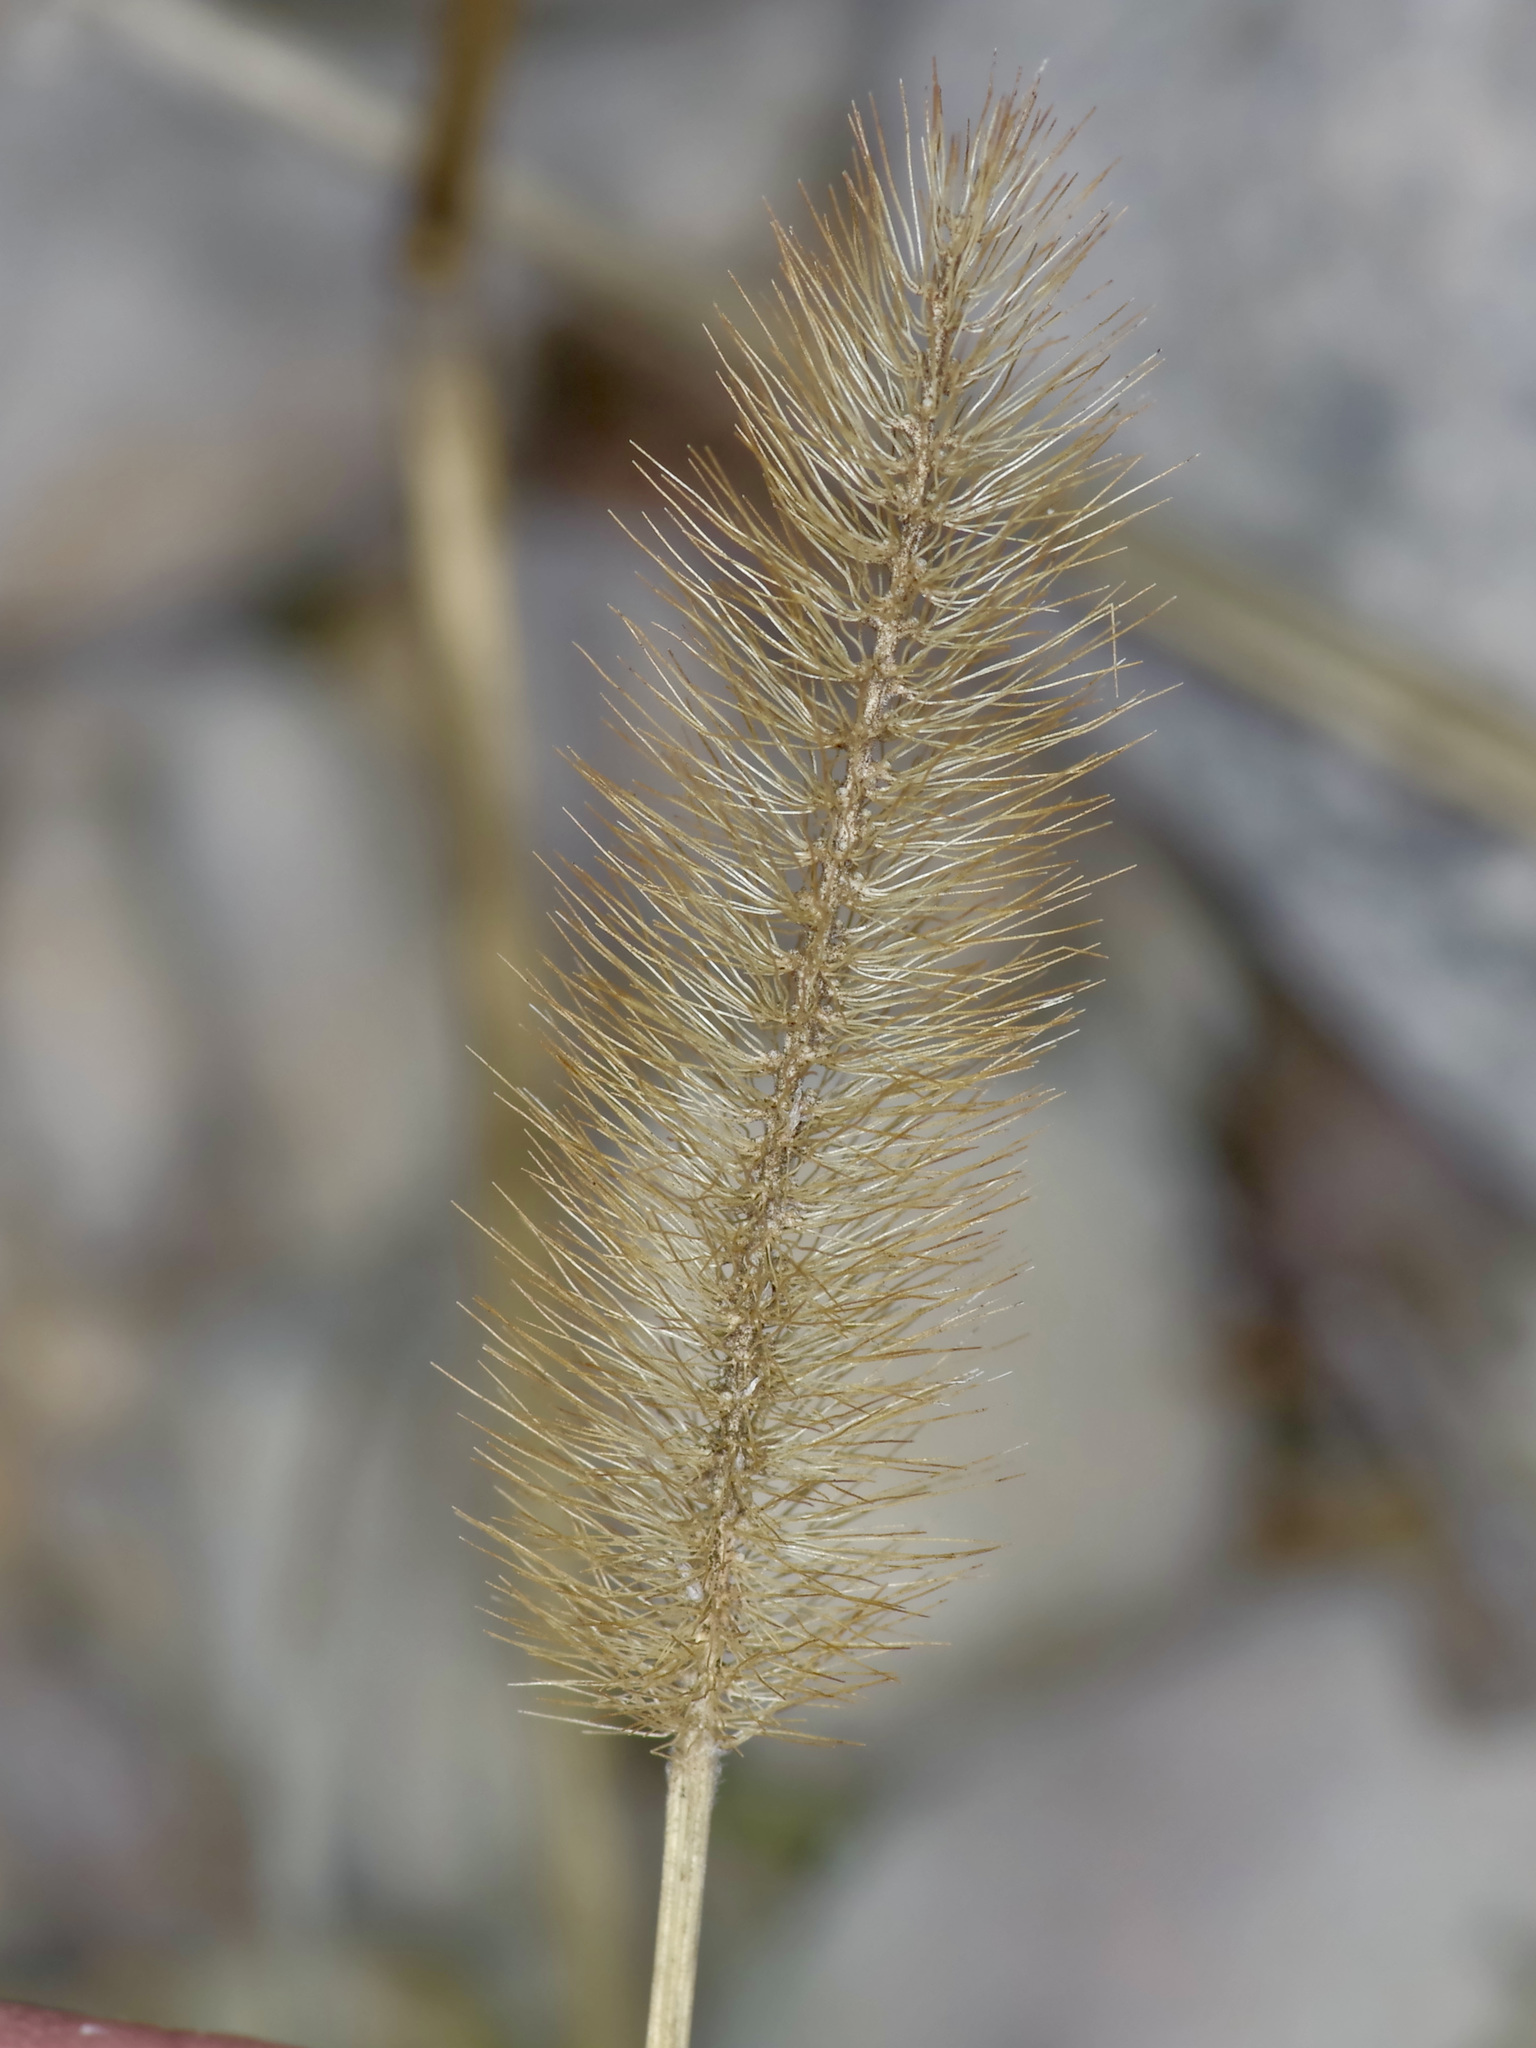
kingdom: Plantae
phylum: Tracheophyta
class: Liliopsida
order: Poales
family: Poaceae
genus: Setaria
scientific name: Setaria parviflora
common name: Knotroot bristle-grass
